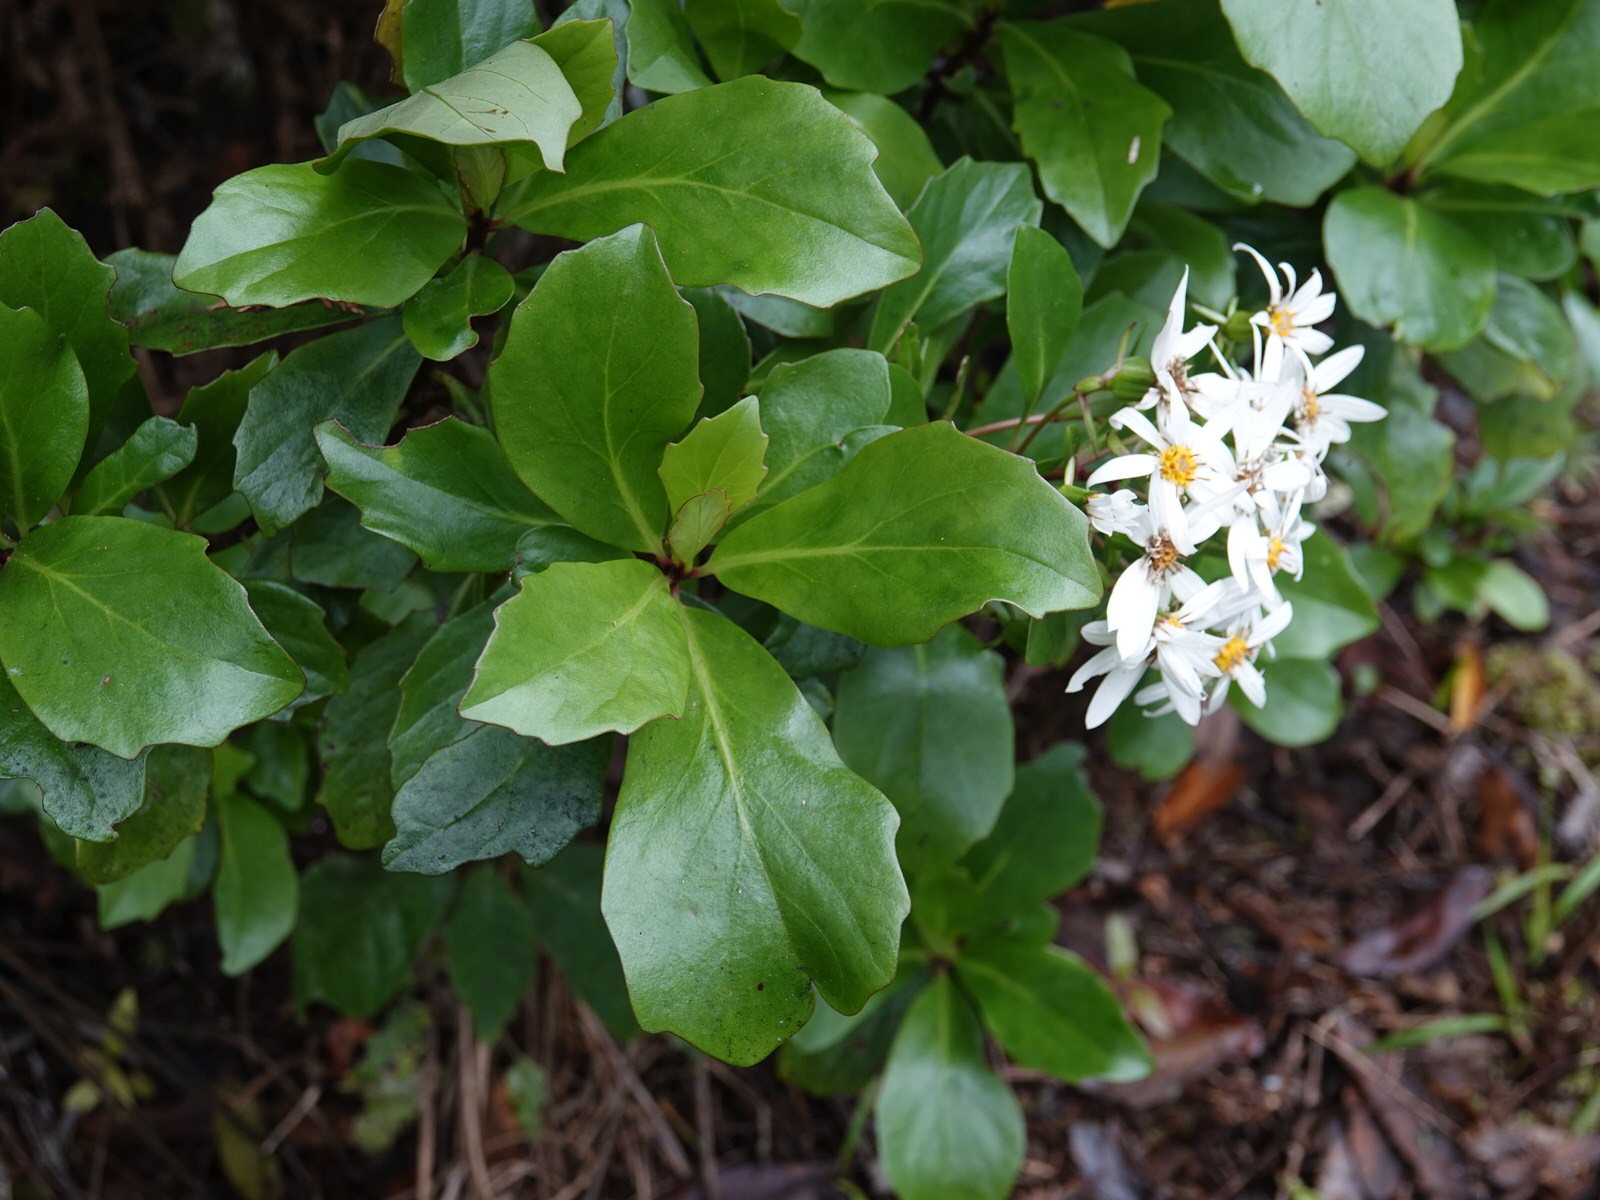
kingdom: Plantae
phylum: Tracheophyta
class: Magnoliopsida
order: Asterales
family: Asteraceae
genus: Brachyglottis
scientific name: Brachyglottis kirkii
